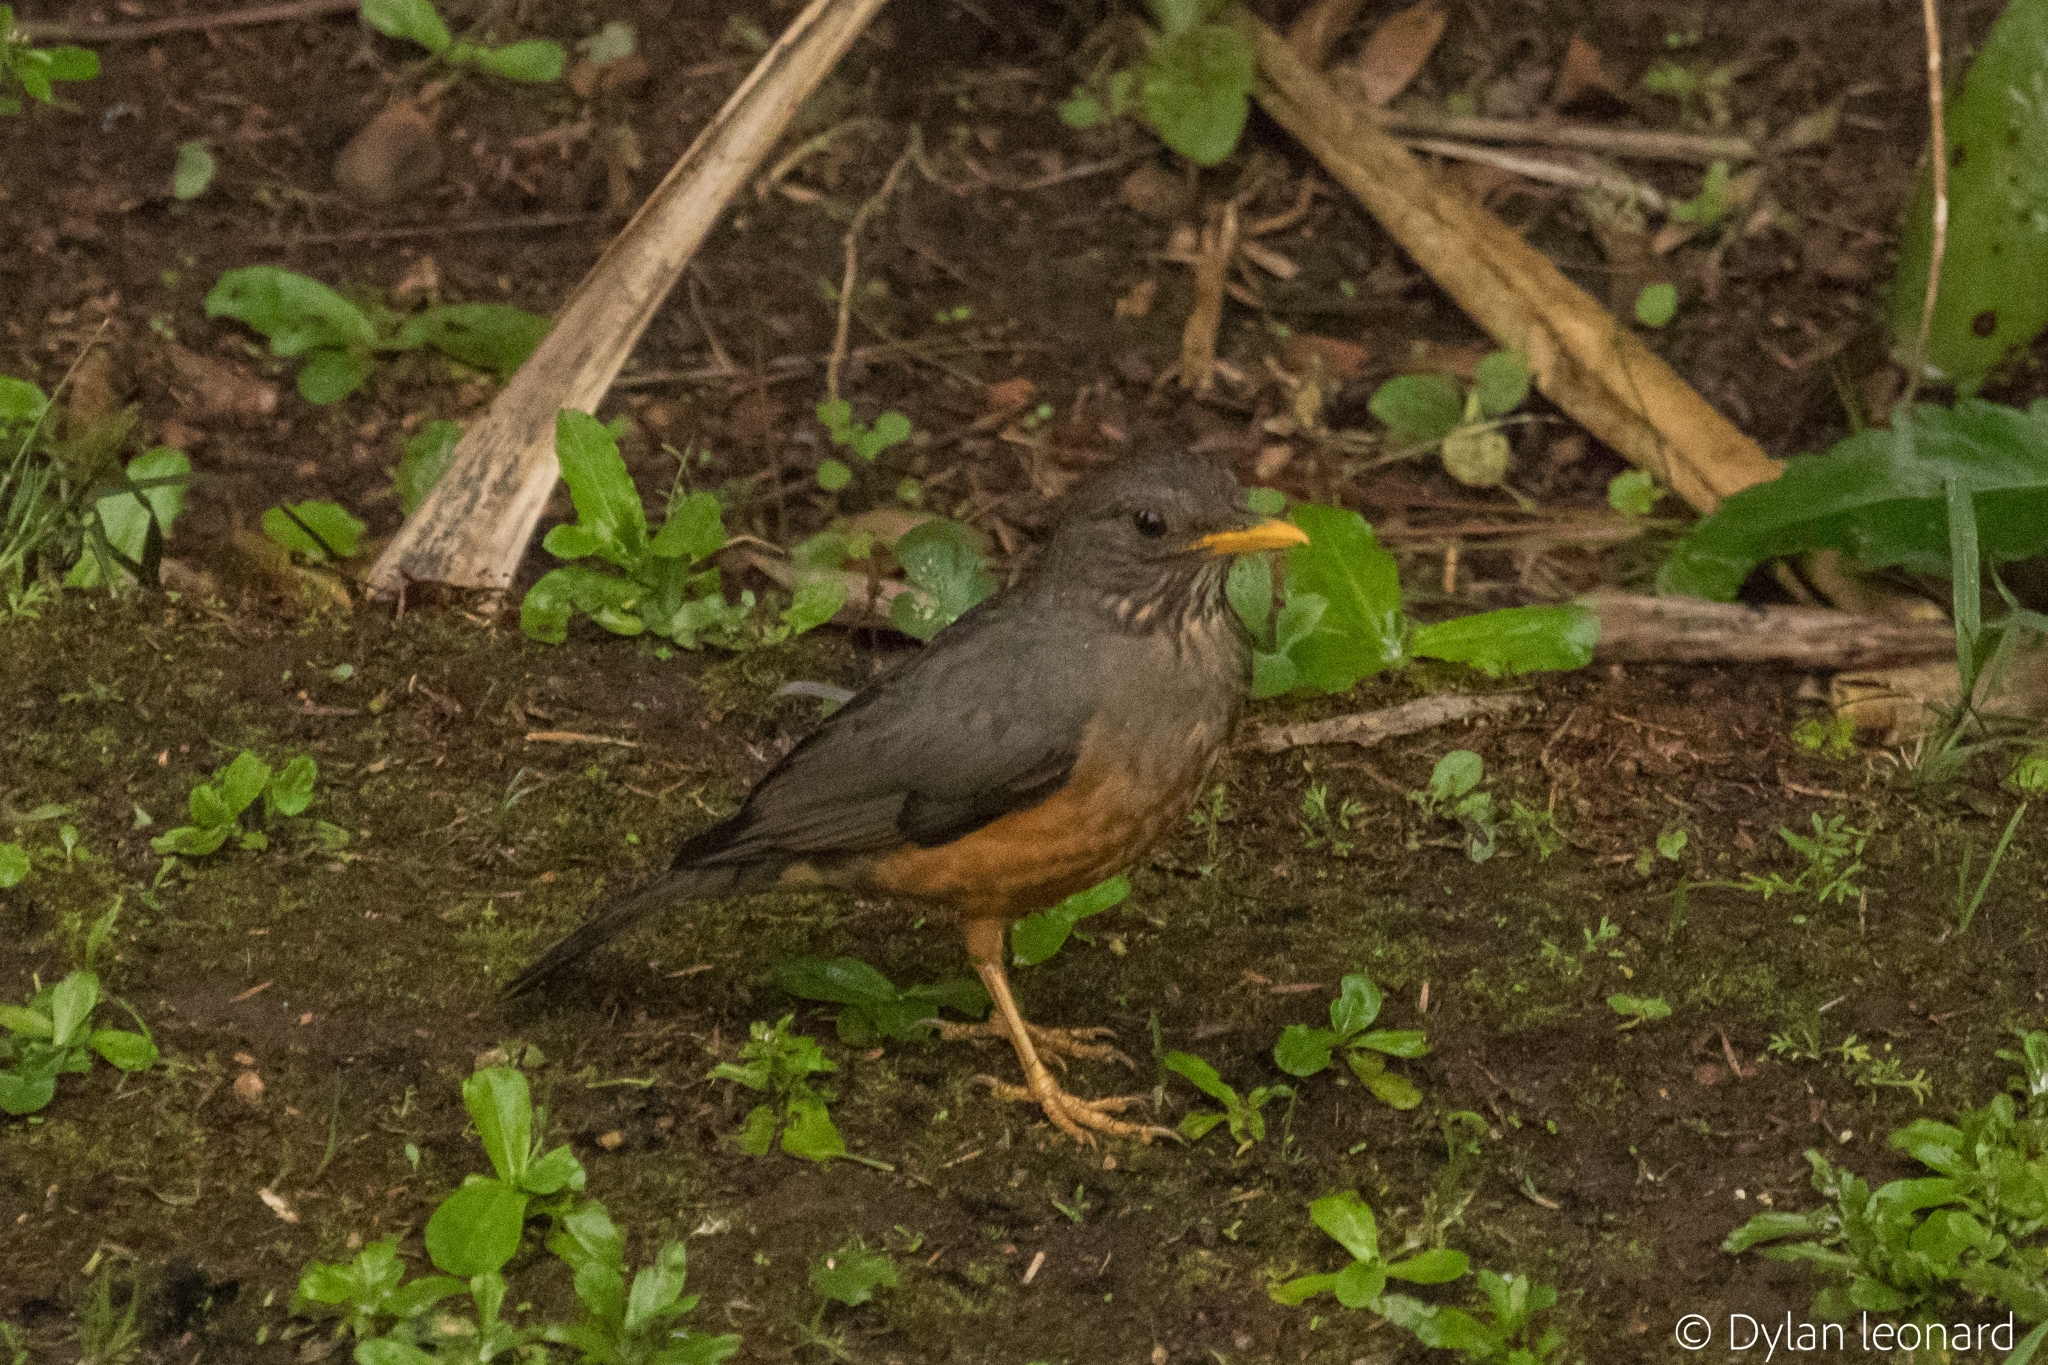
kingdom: Animalia
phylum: Chordata
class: Aves
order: Passeriformes
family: Turdidae
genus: Turdus
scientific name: Turdus olivaceus
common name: Olive thrush
